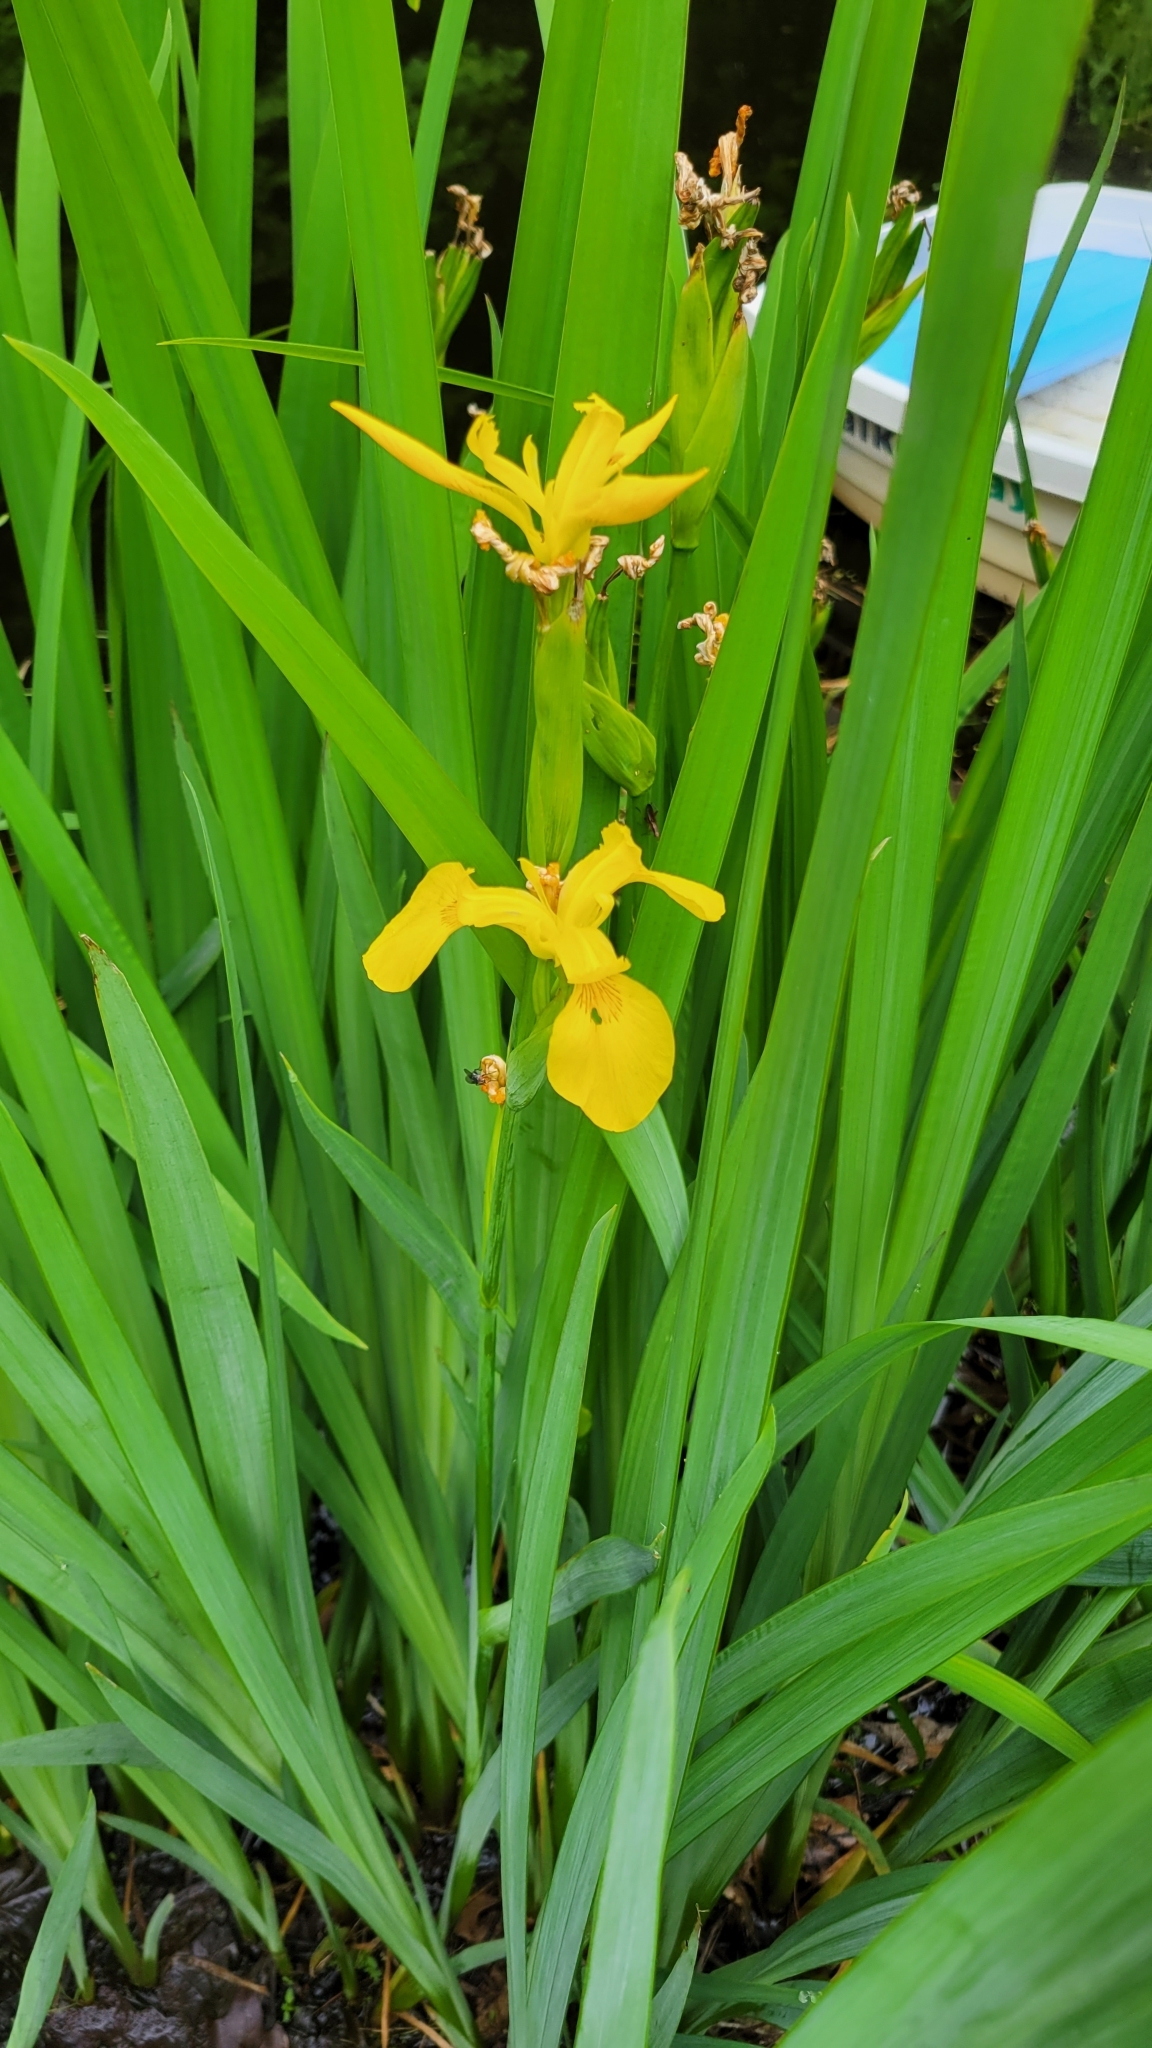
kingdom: Plantae
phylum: Tracheophyta
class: Liliopsida
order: Asparagales
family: Iridaceae
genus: Iris
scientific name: Iris pseudacorus
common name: Yellow flag
